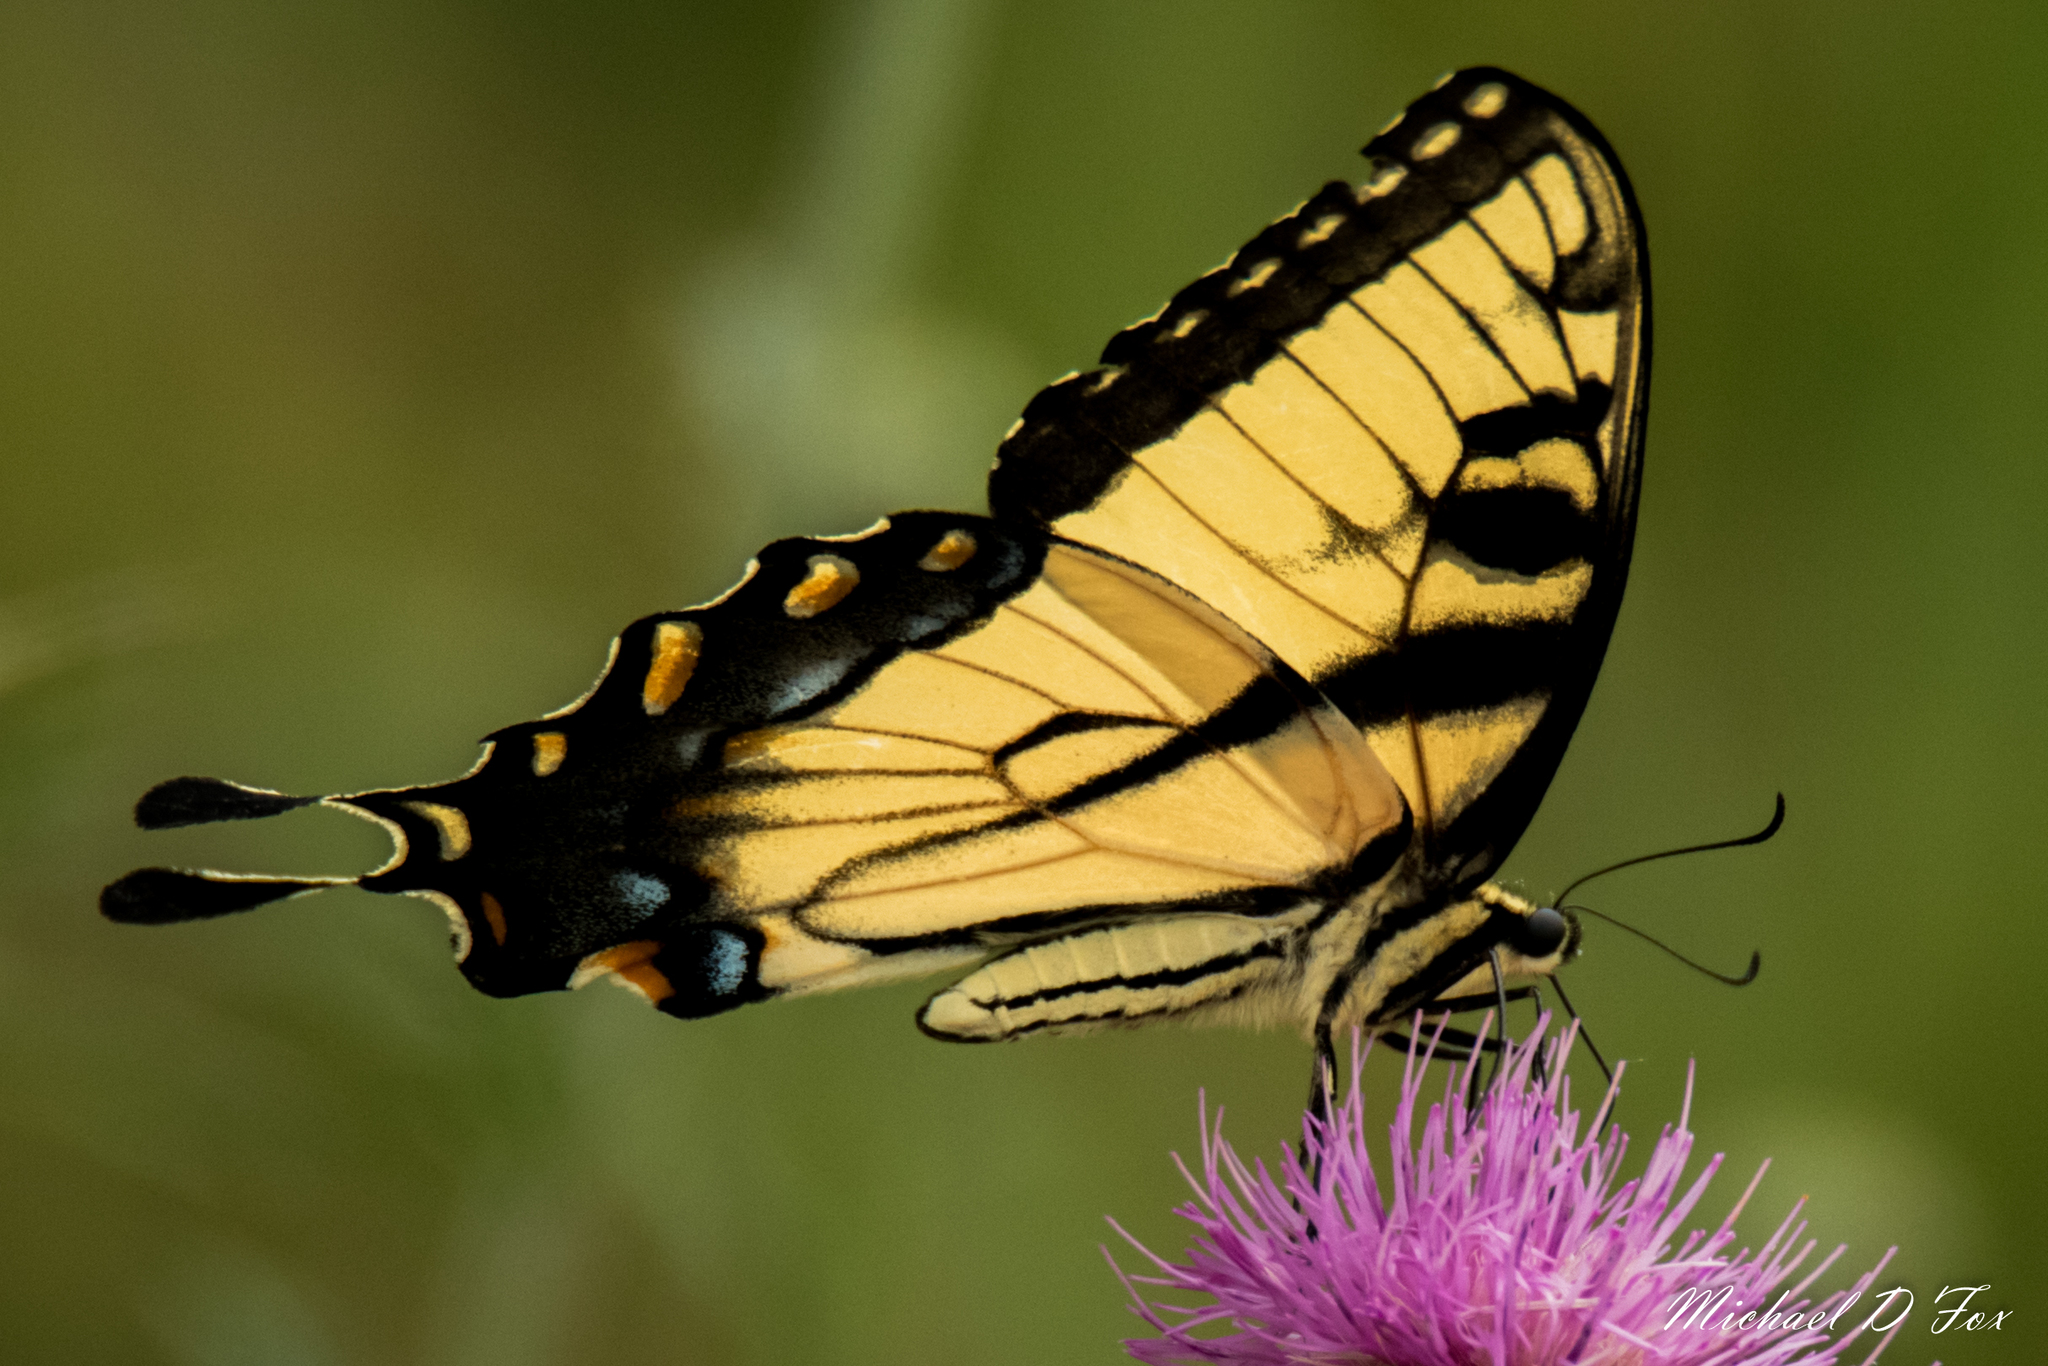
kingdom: Animalia
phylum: Arthropoda
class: Insecta
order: Lepidoptera
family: Papilionidae
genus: Papilio
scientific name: Papilio glaucus
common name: Tiger swallowtail
